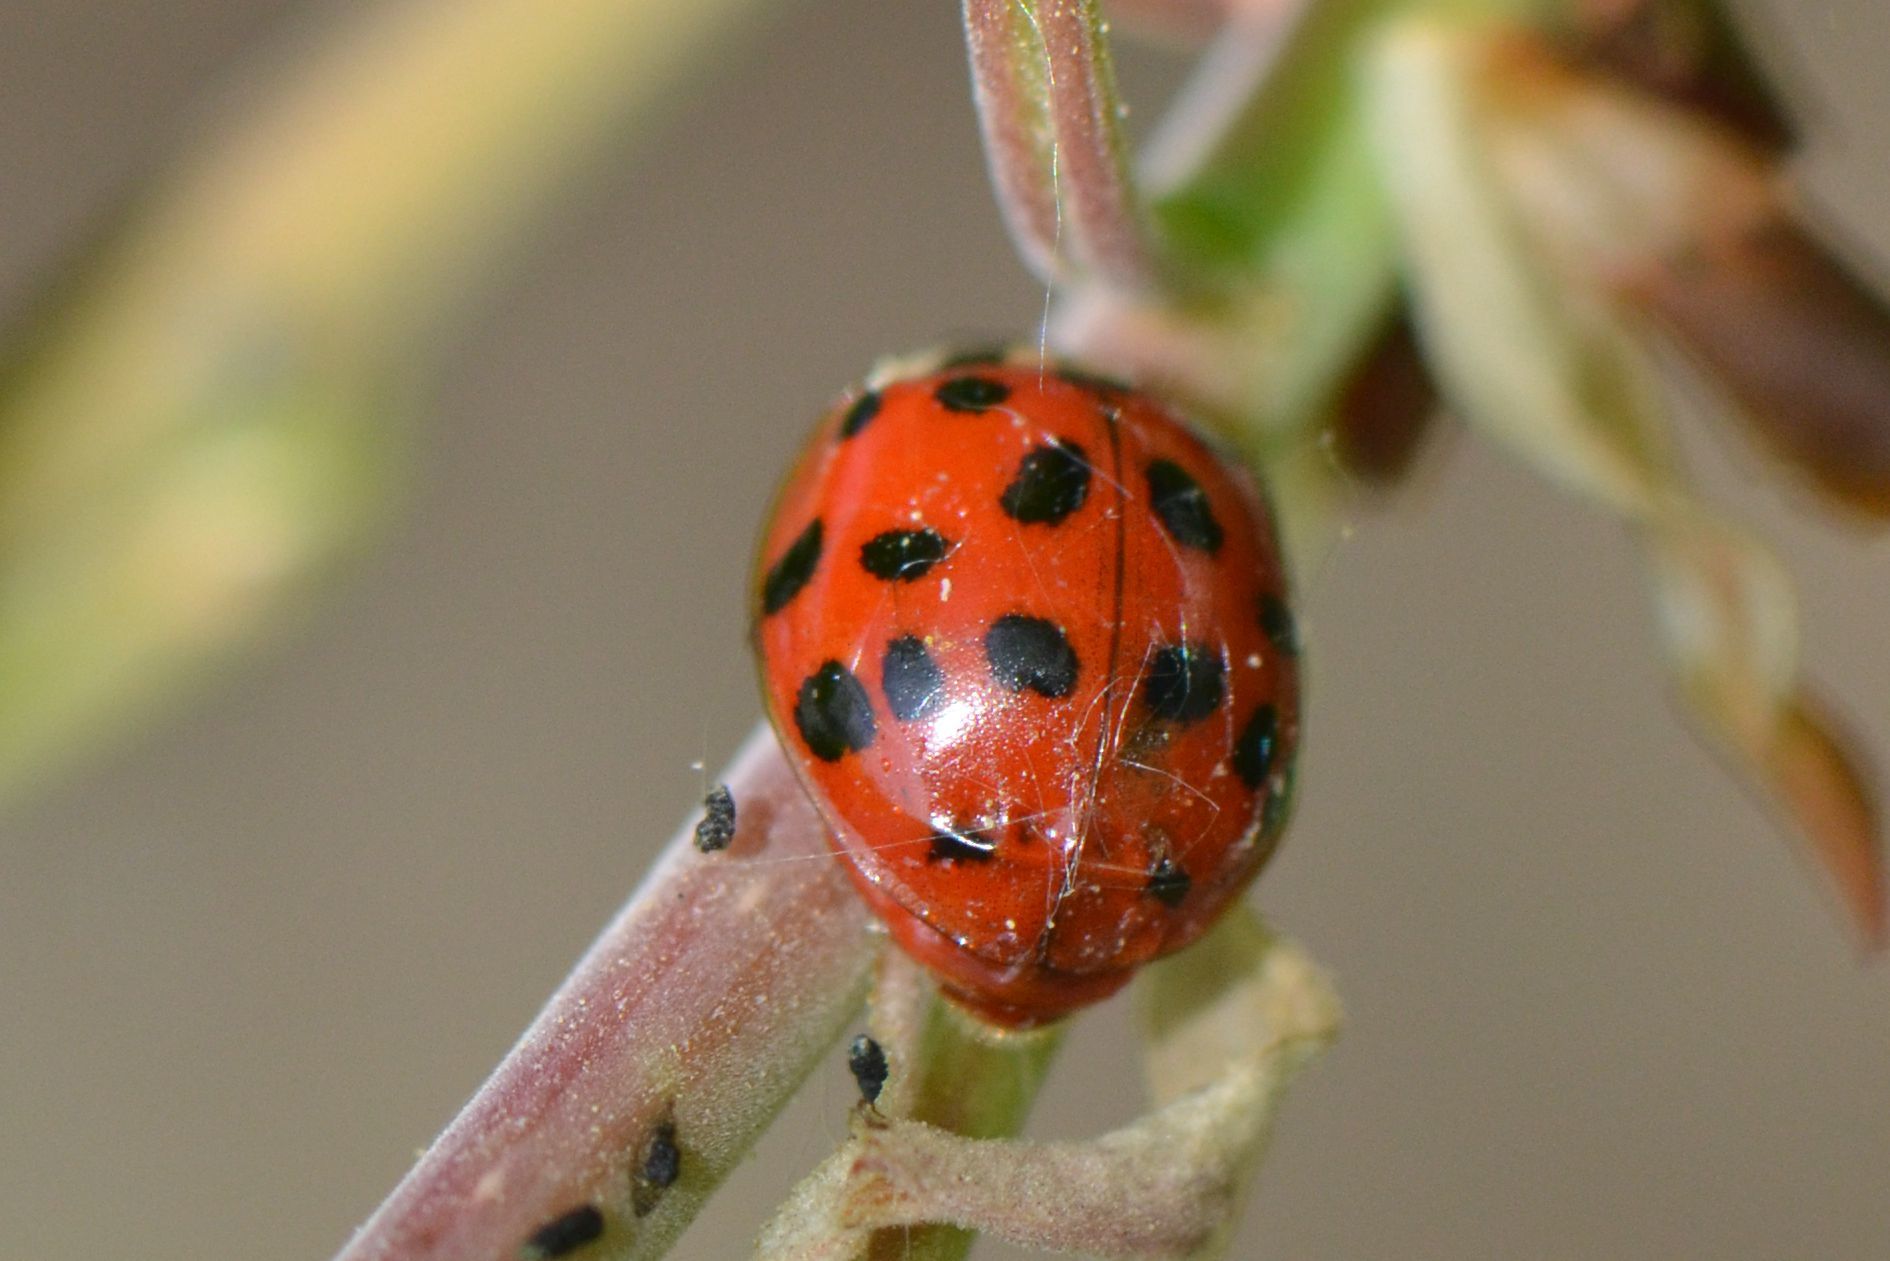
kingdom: Animalia
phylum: Arthropoda
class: Insecta
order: Coleoptera
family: Coccinellidae
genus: Harmonia
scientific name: Harmonia axyridis
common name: Harlequin ladybird
